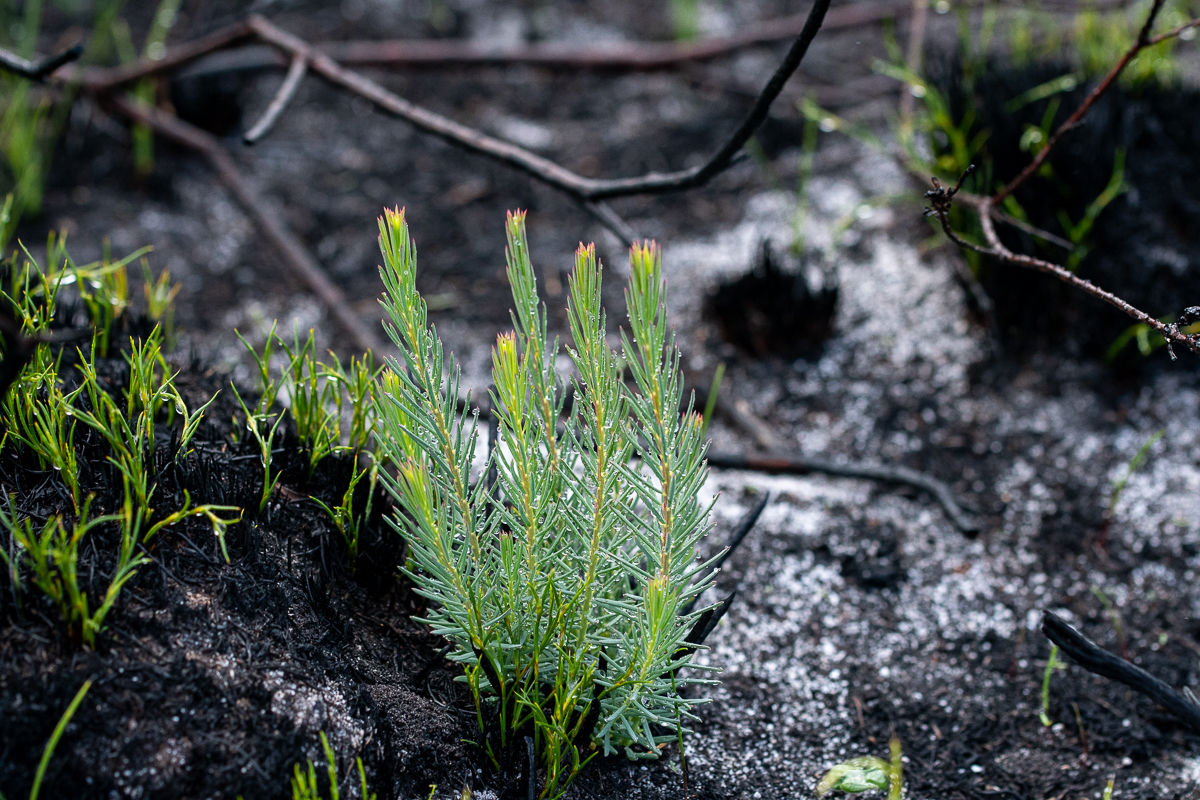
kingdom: Plantae
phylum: Tracheophyta
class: Magnoliopsida
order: Malvales
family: Thymelaeaceae
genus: Gnidia
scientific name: Gnidia pinifolia
